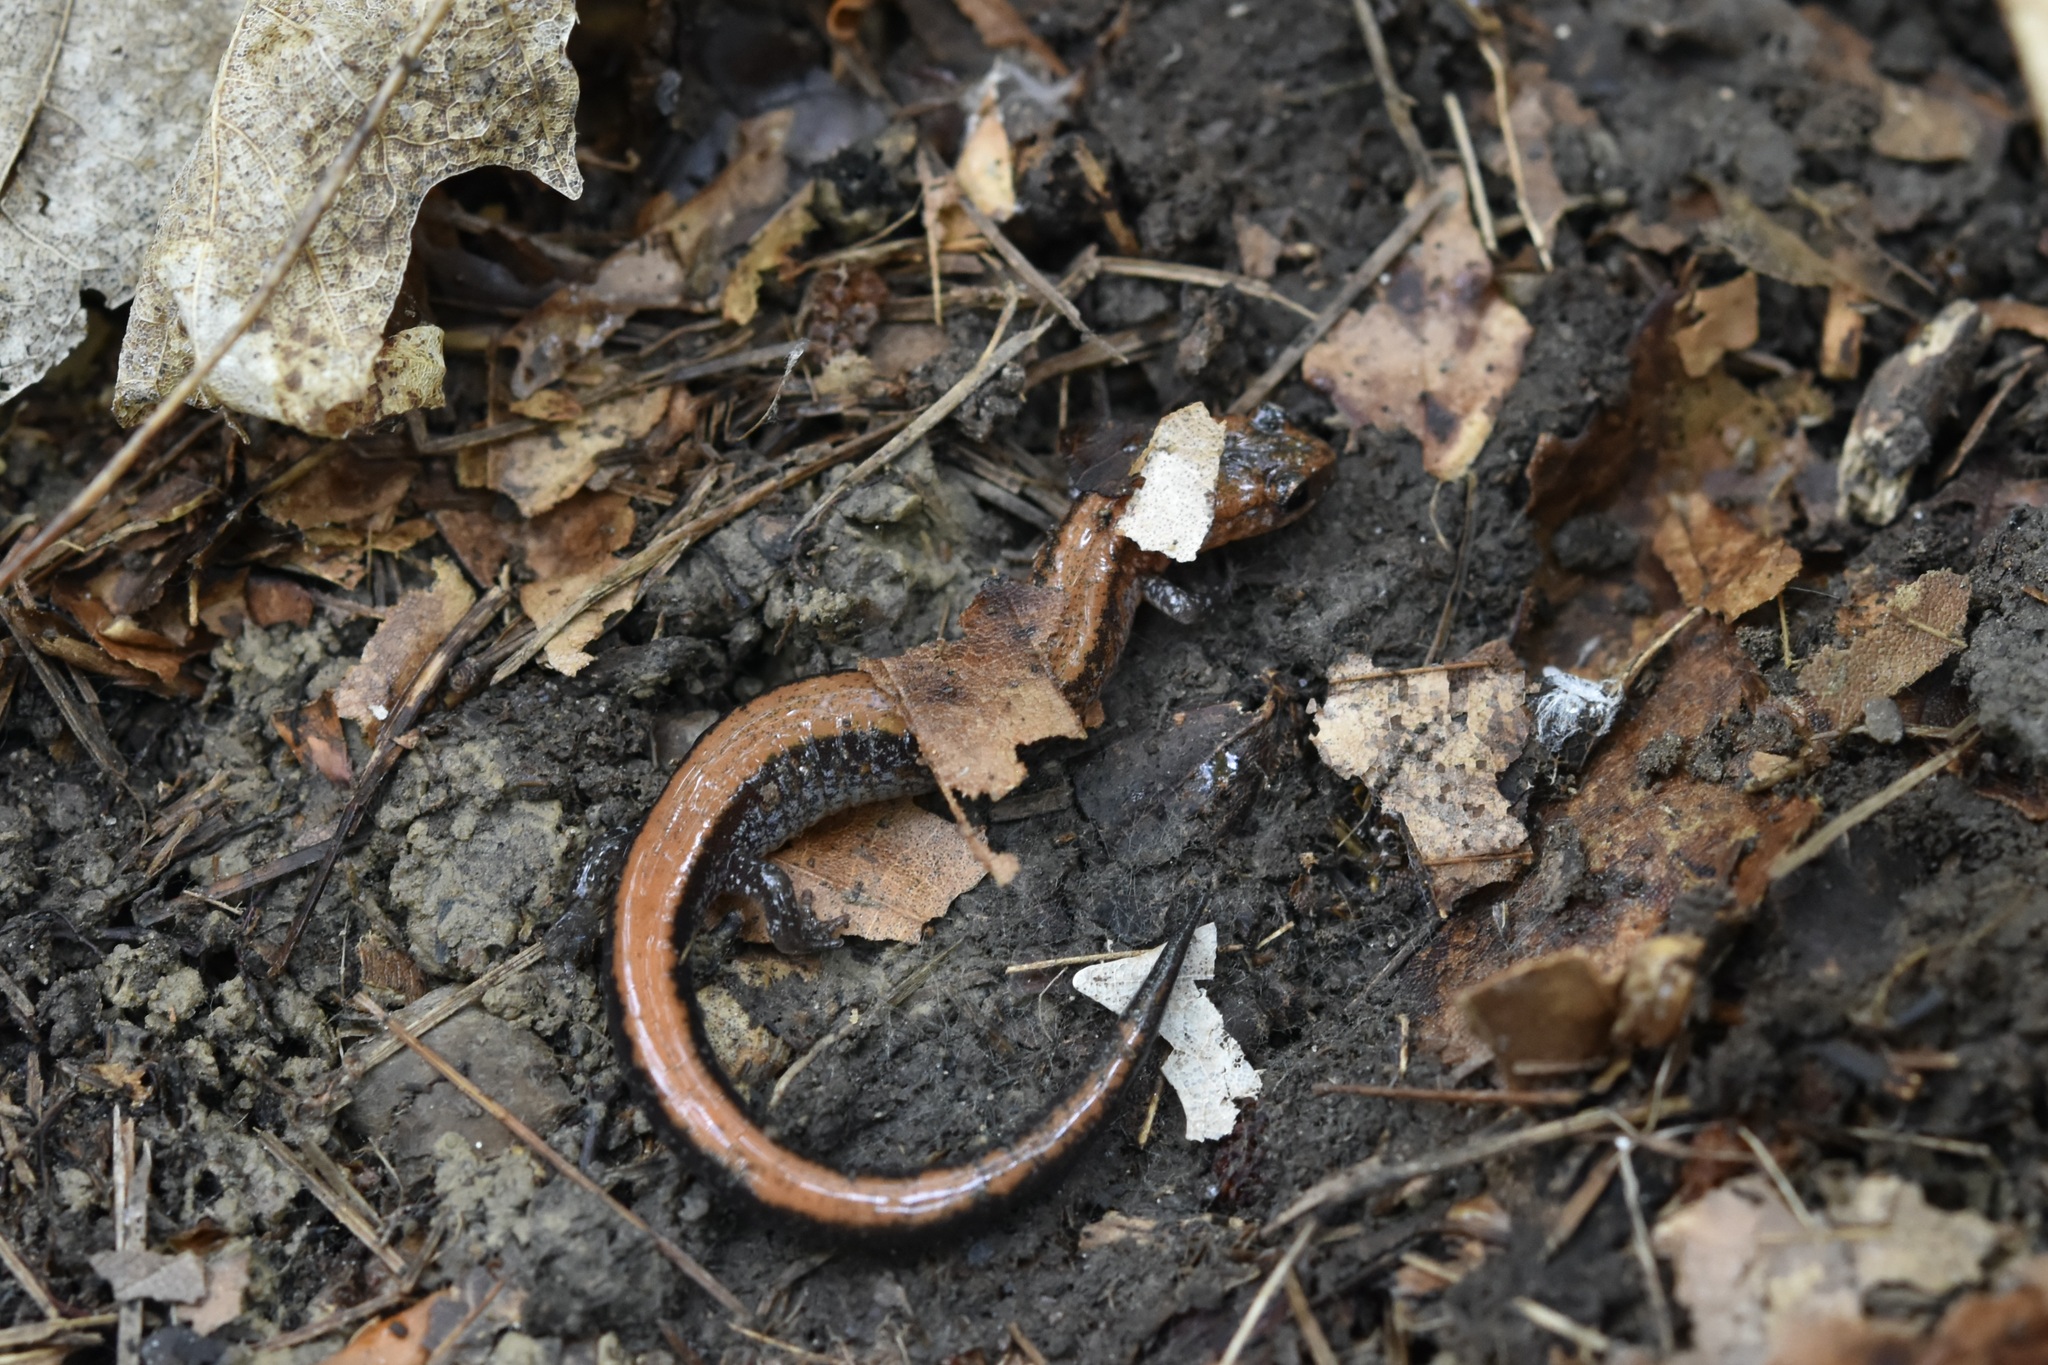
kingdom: Animalia
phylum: Chordata
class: Amphibia
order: Caudata
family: Plethodontidae
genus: Plethodon
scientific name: Plethodon cinereus
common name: Redback salamander
